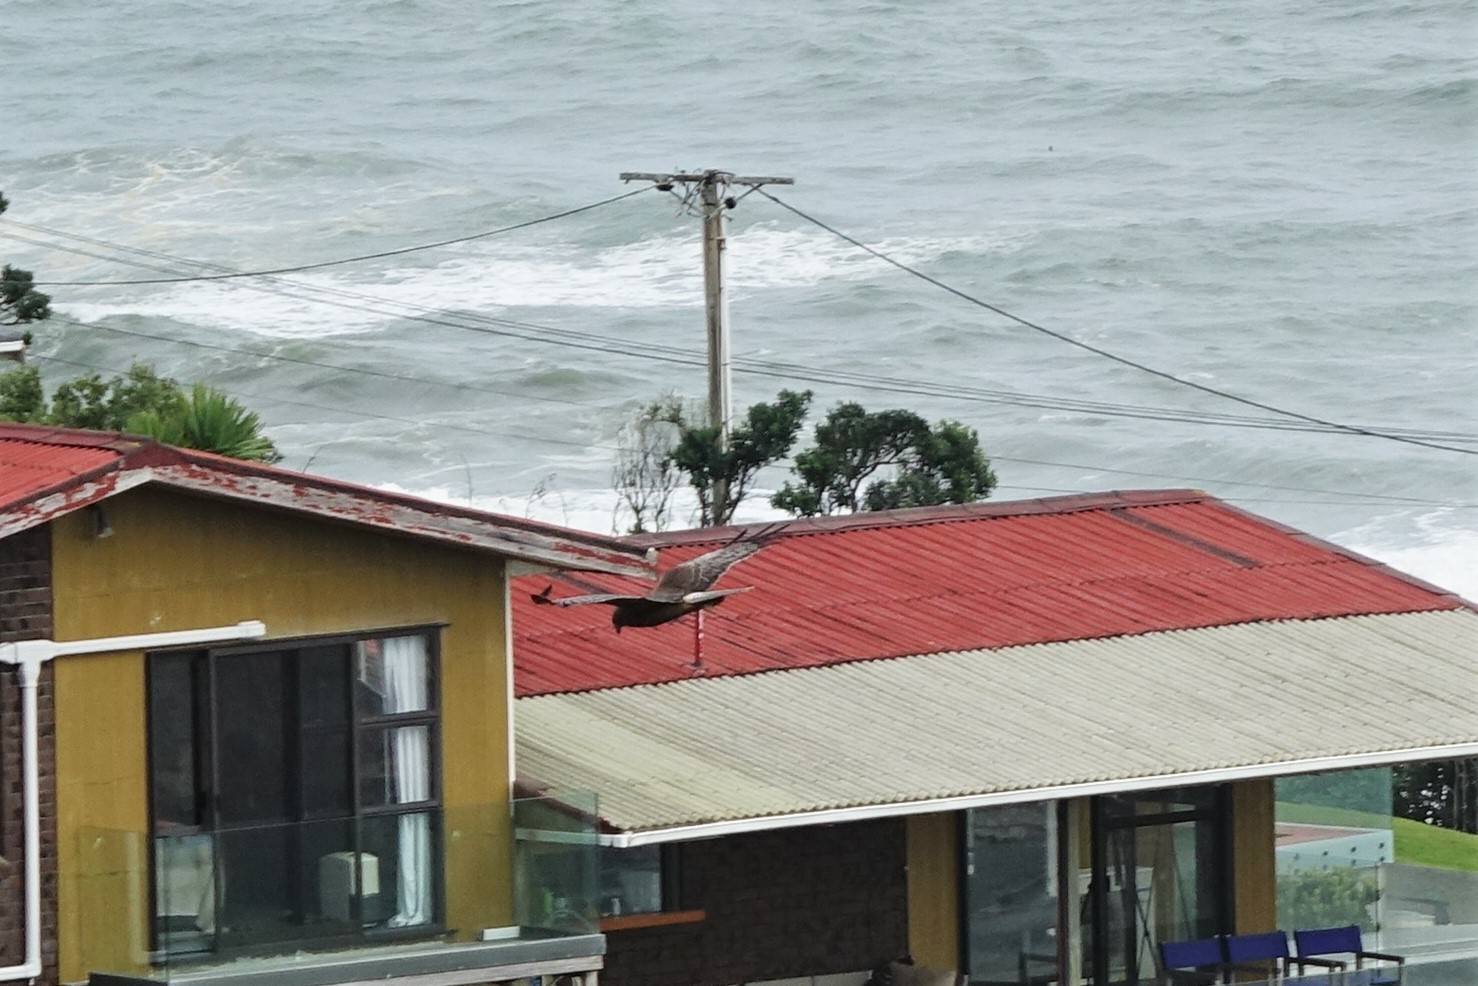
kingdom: Animalia
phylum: Chordata
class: Aves
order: Accipitriformes
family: Accipitridae
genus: Circus
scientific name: Circus approximans
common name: Swamp harrier
